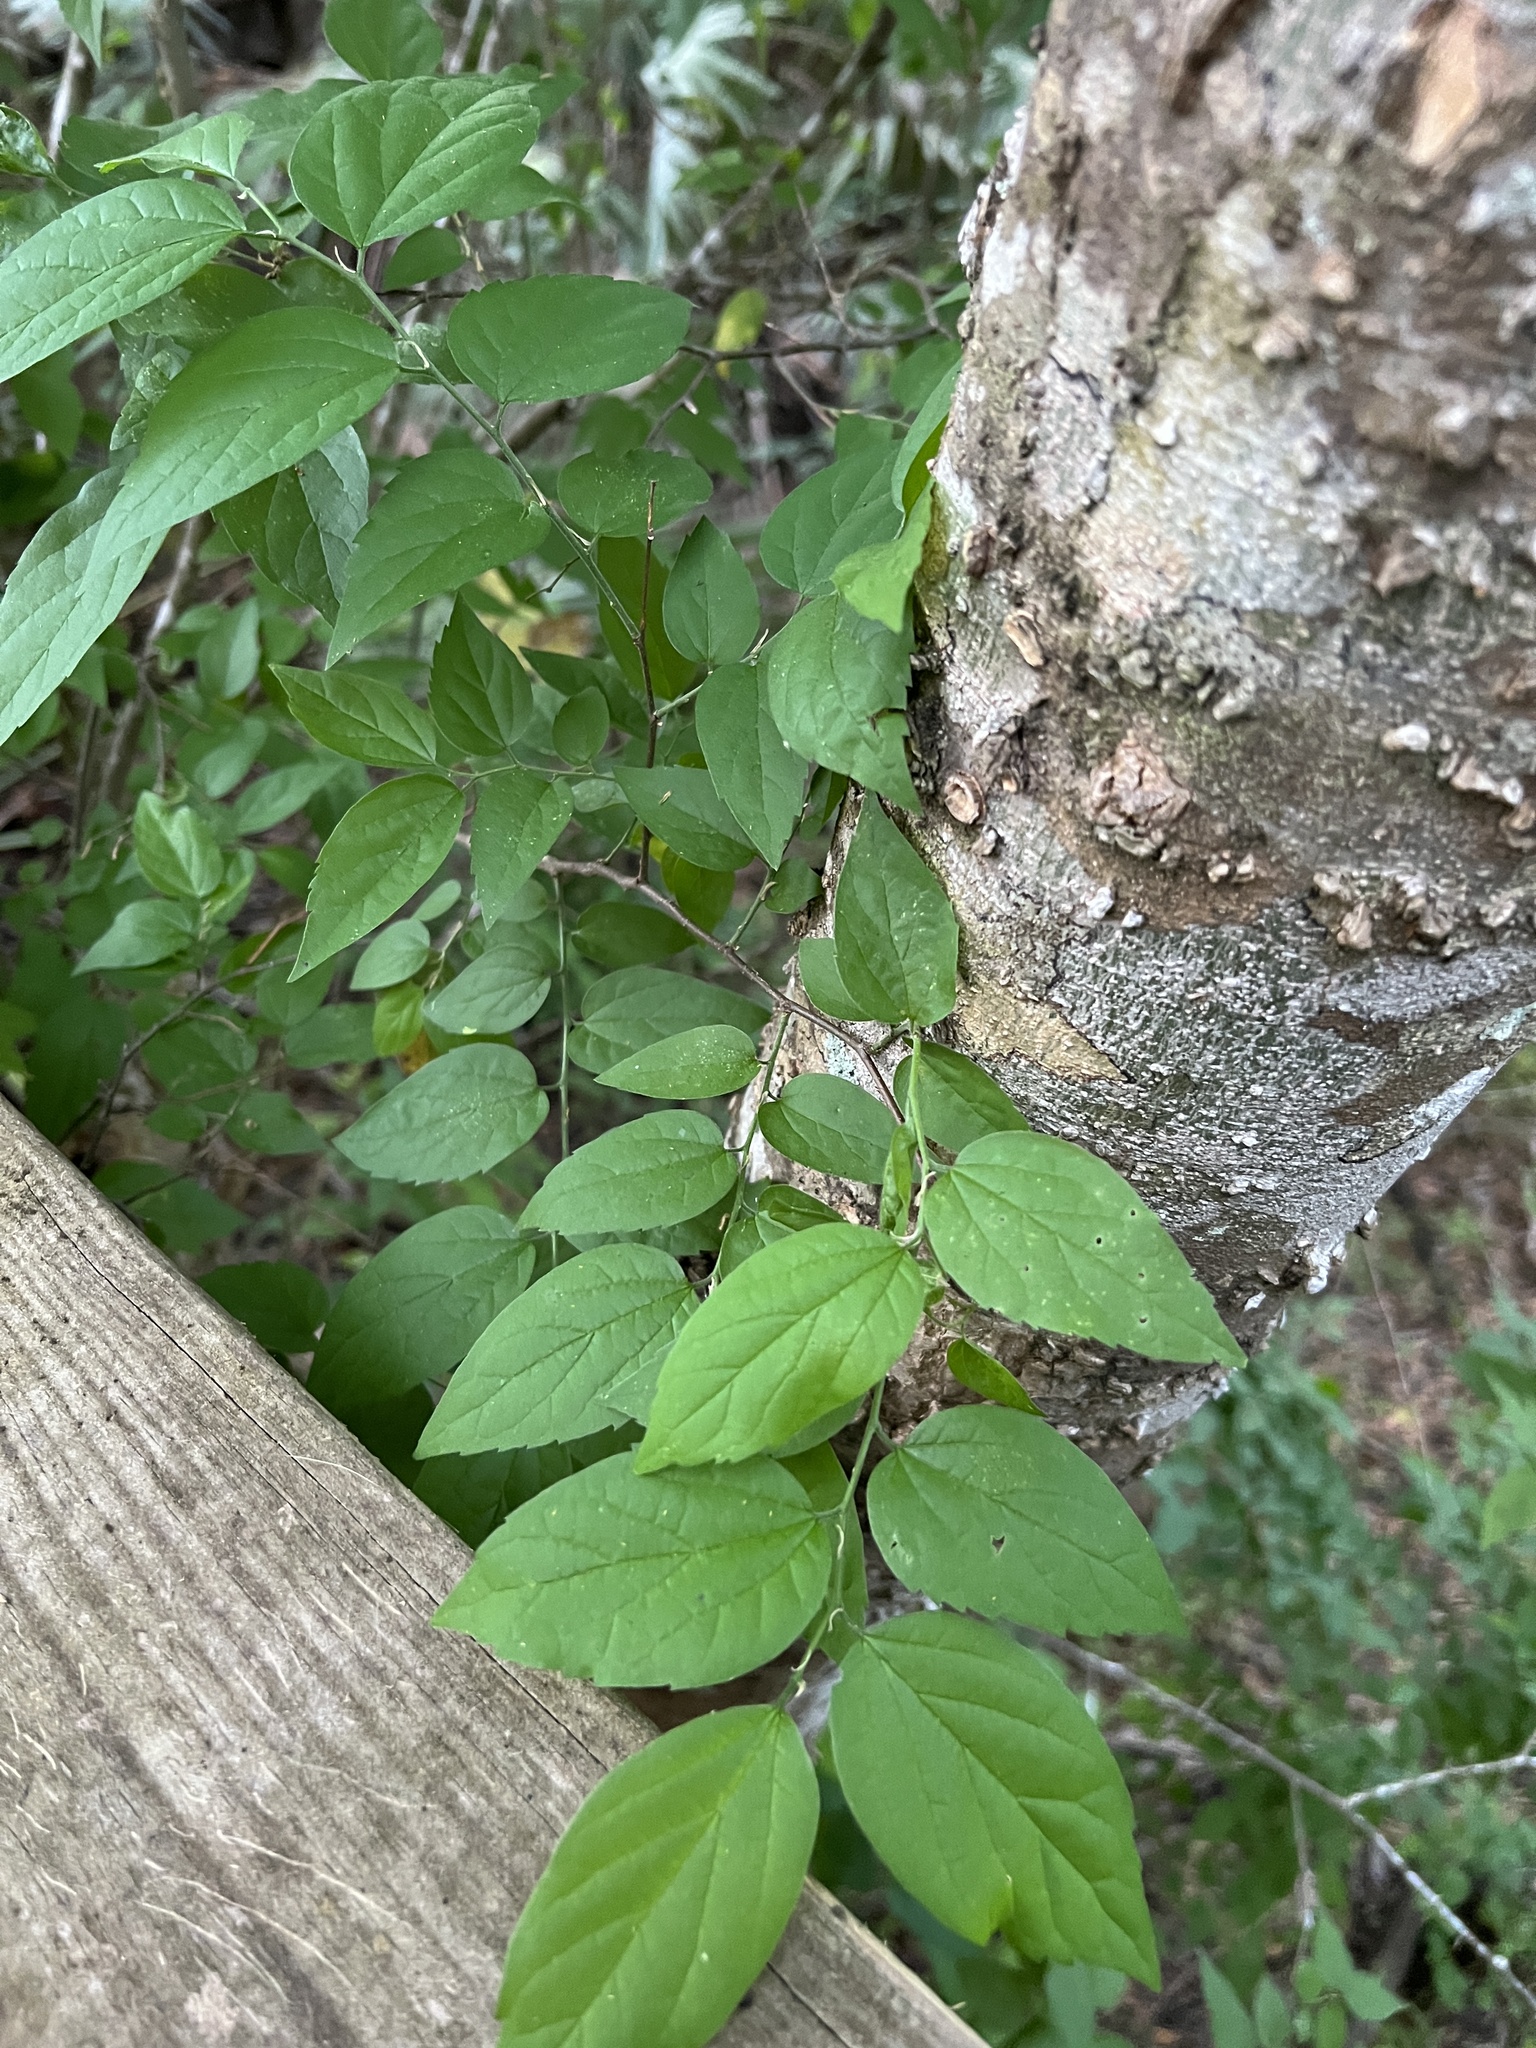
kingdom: Plantae
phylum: Tracheophyta
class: Magnoliopsida
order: Rosales
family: Cannabaceae
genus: Celtis
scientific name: Celtis laevigata
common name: Sugarberry
